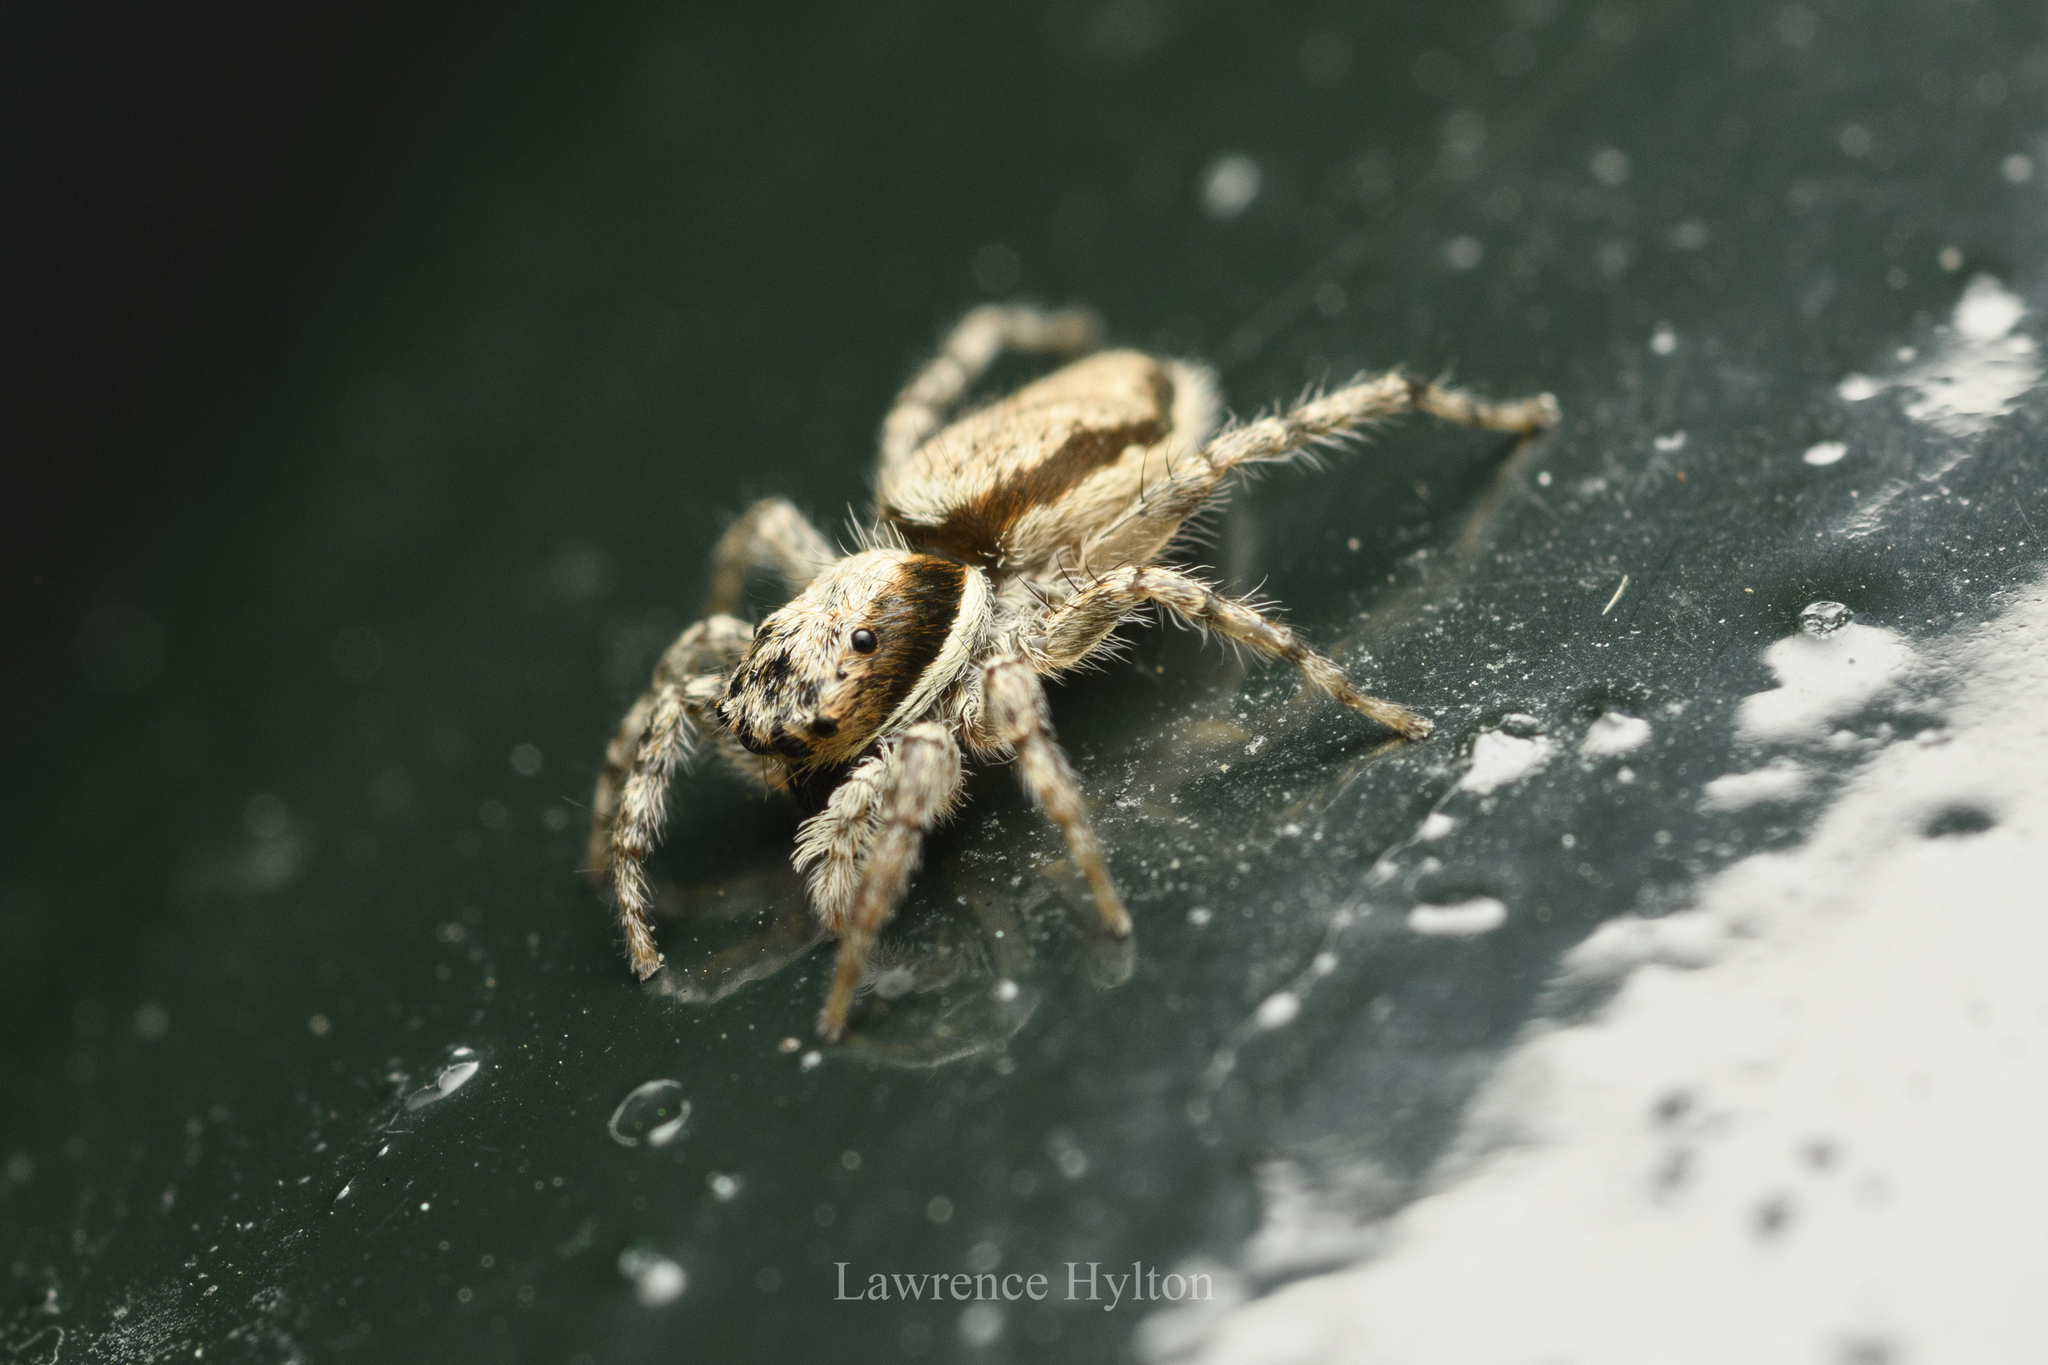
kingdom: Animalia
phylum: Arthropoda
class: Arachnida
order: Araneae
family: Salticidae
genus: Menemerus
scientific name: Menemerus bivittatus
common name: Gray wall jumper
